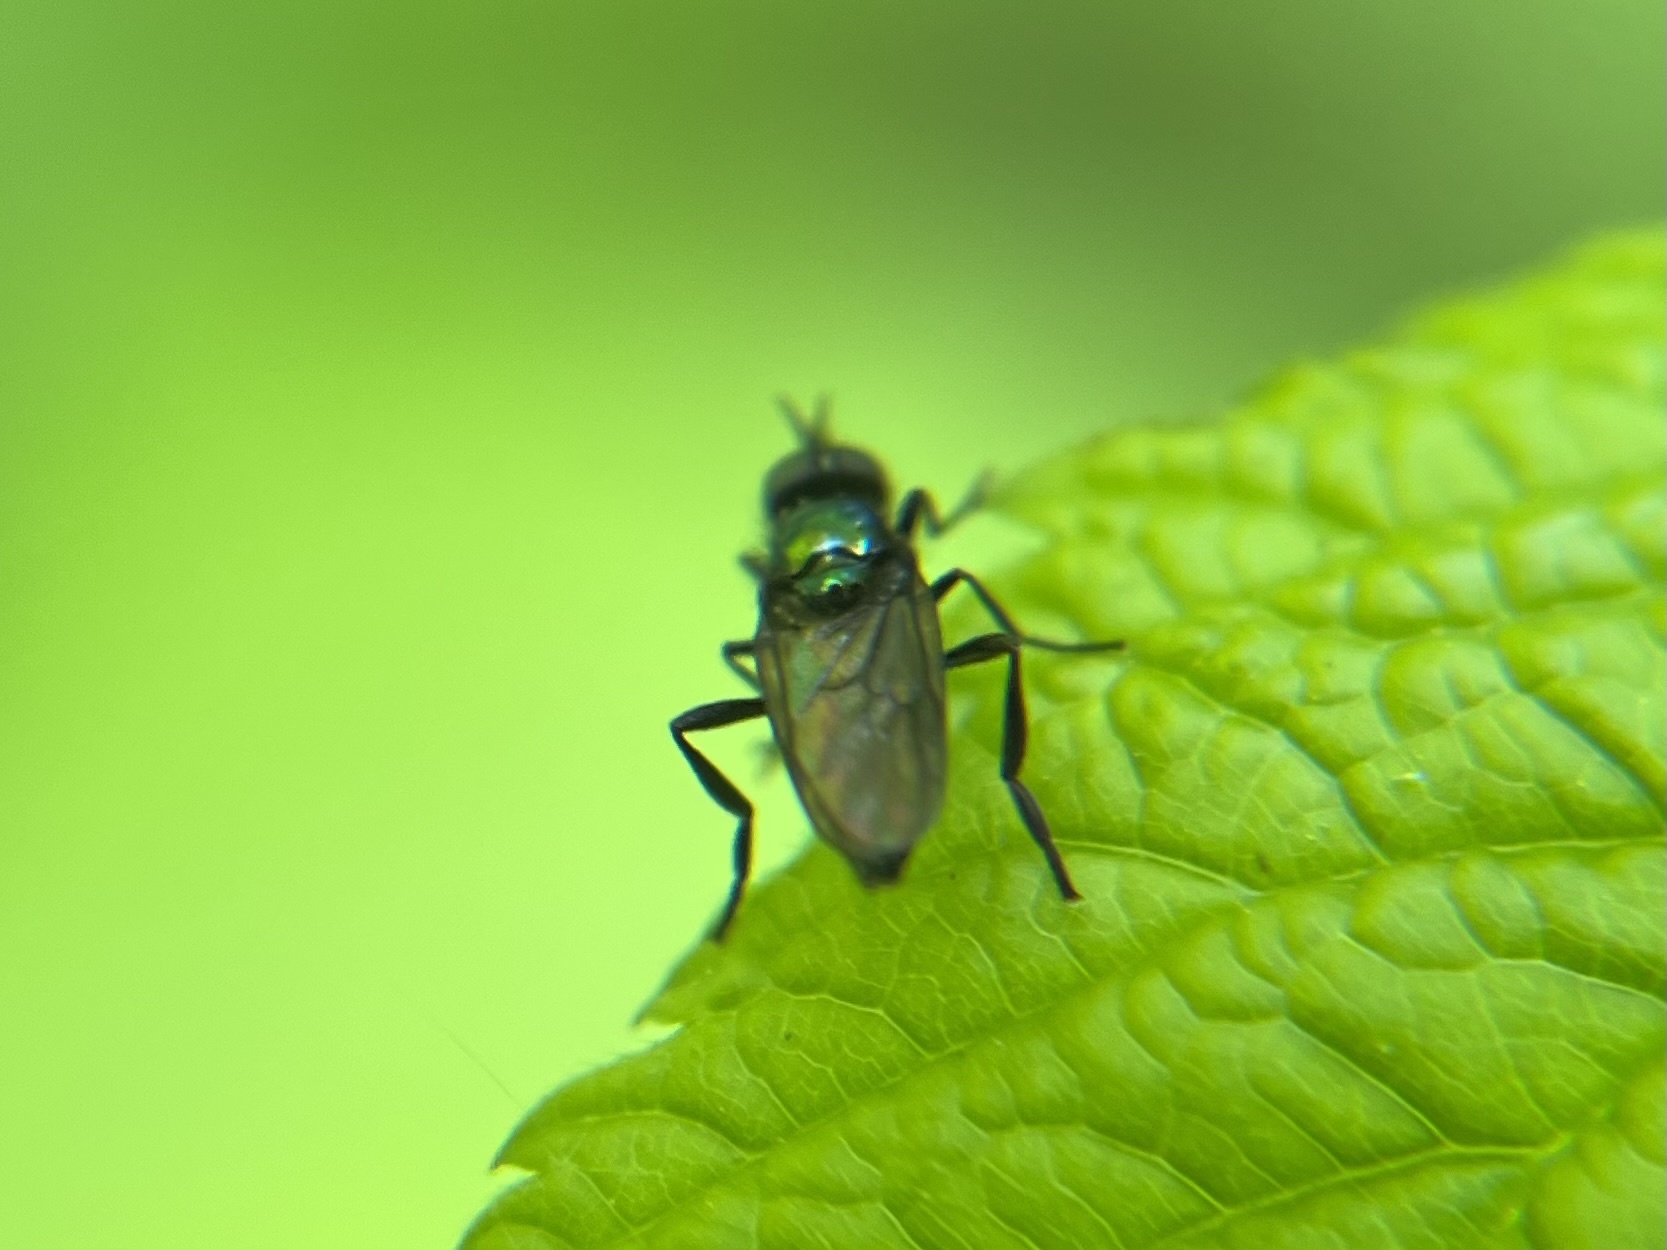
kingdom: Animalia
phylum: Arthropoda
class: Insecta
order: Diptera
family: Stratiomyidae
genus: Actina
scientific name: Actina chalybea
